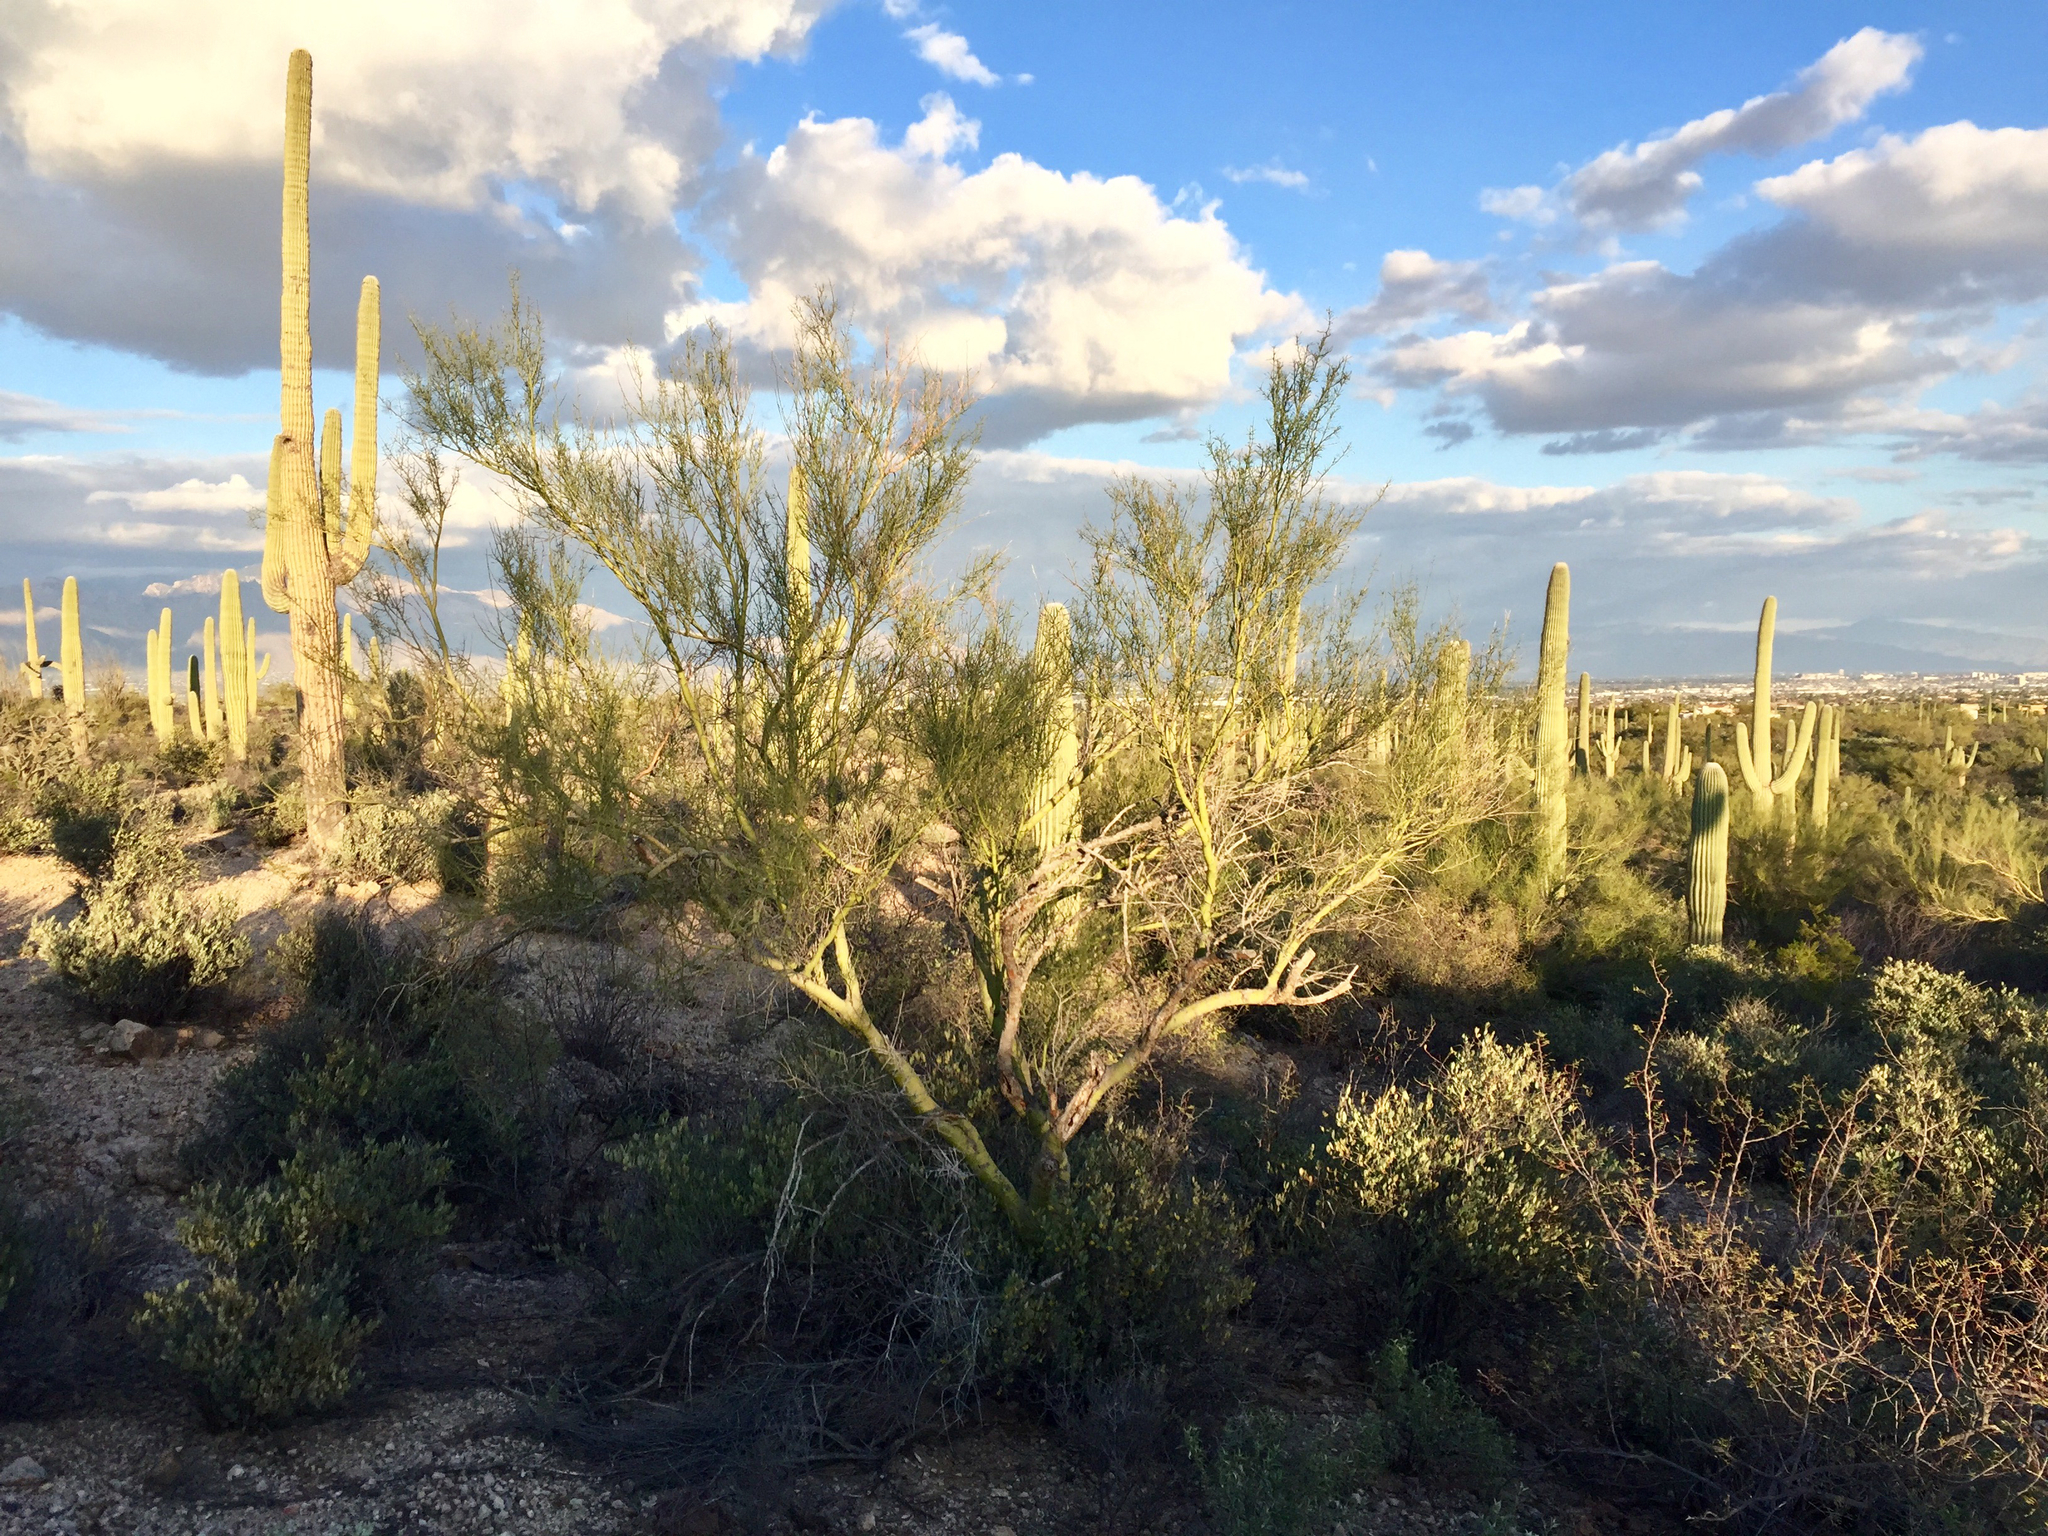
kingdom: Plantae
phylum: Tracheophyta
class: Magnoliopsida
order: Fabales
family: Fabaceae
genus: Parkinsonia
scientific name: Parkinsonia microphylla
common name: Yellow paloverde
